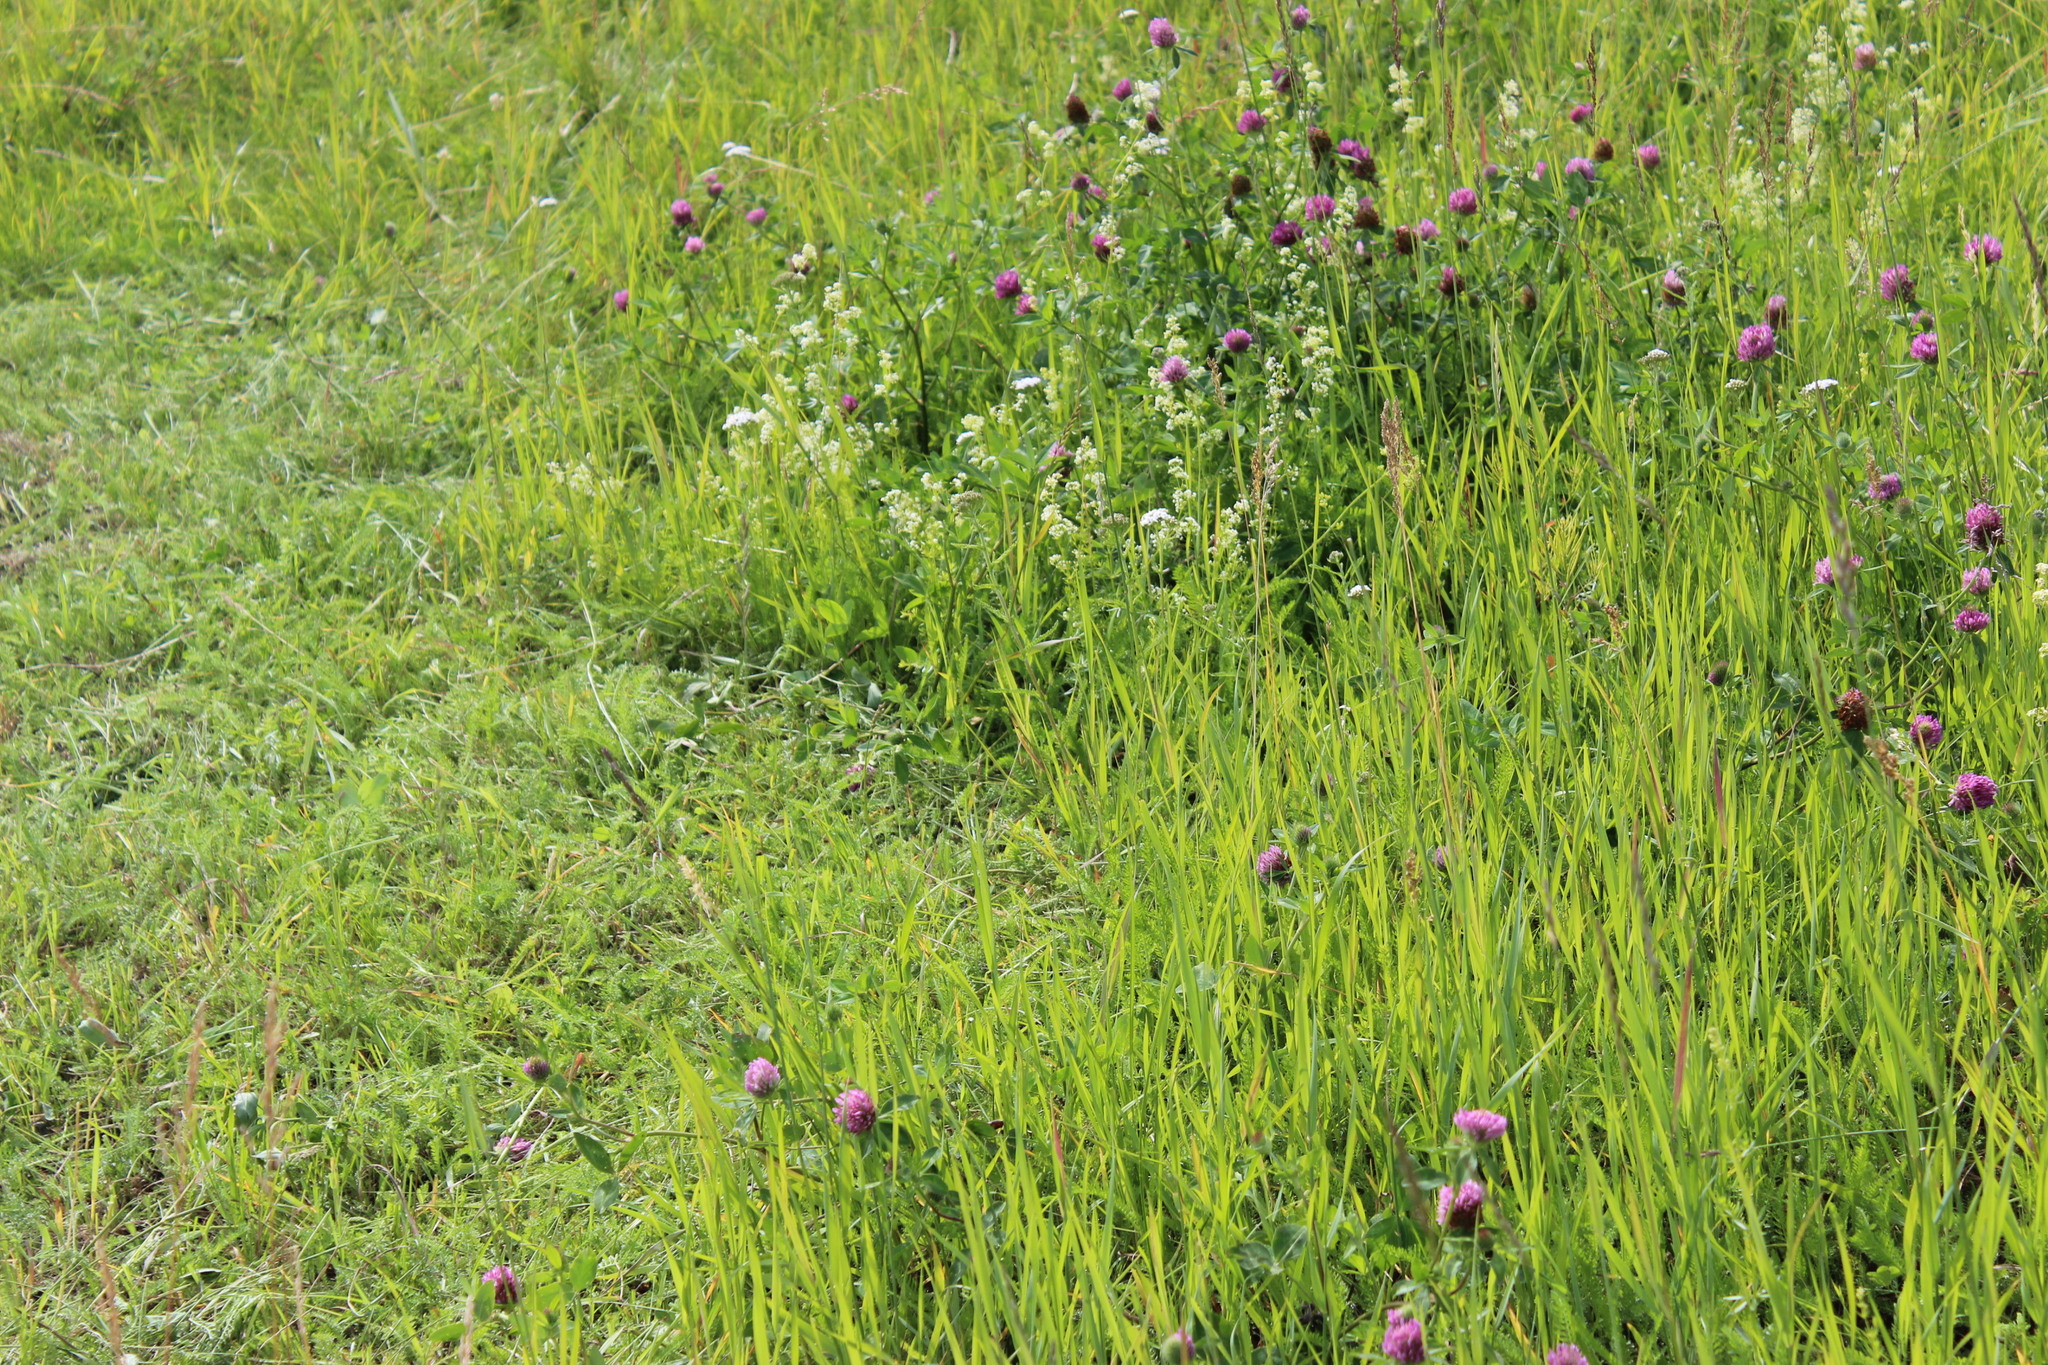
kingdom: Plantae
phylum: Tracheophyta
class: Magnoliopsida
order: Fabales
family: Fabaceae
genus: Trifolium
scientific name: Trifolium pratense
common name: Red clover
